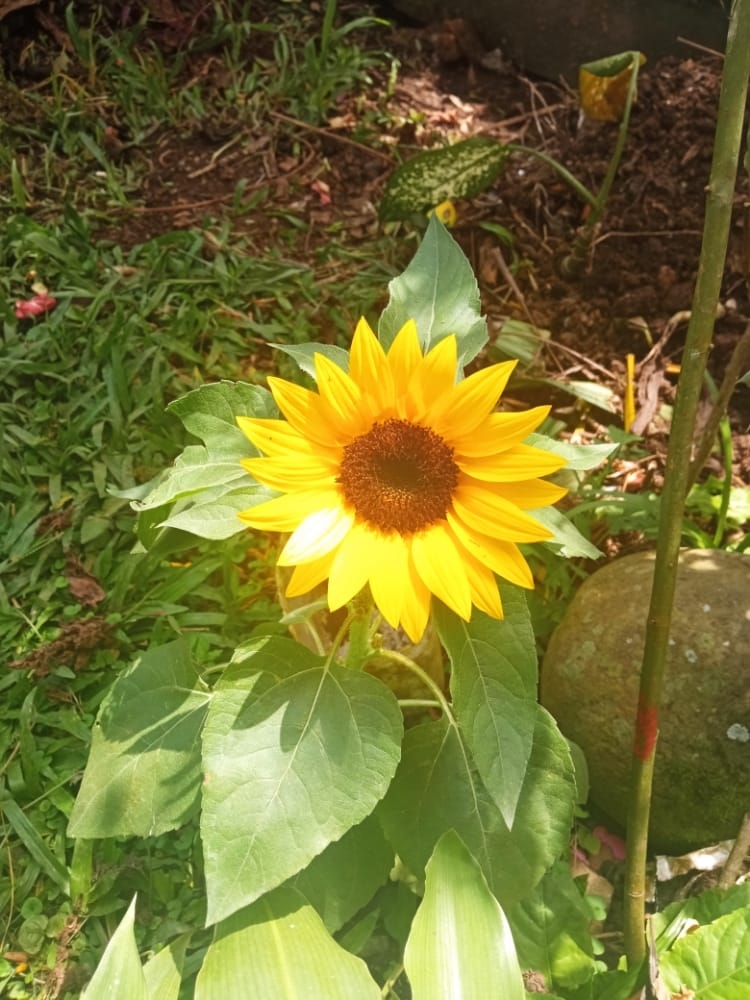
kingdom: Plantae
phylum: Tracheophyta
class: Magnoliopsida
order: Asterales
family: Asteraceae
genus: Helianthus
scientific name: Helianthus annuus
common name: Sunflower
